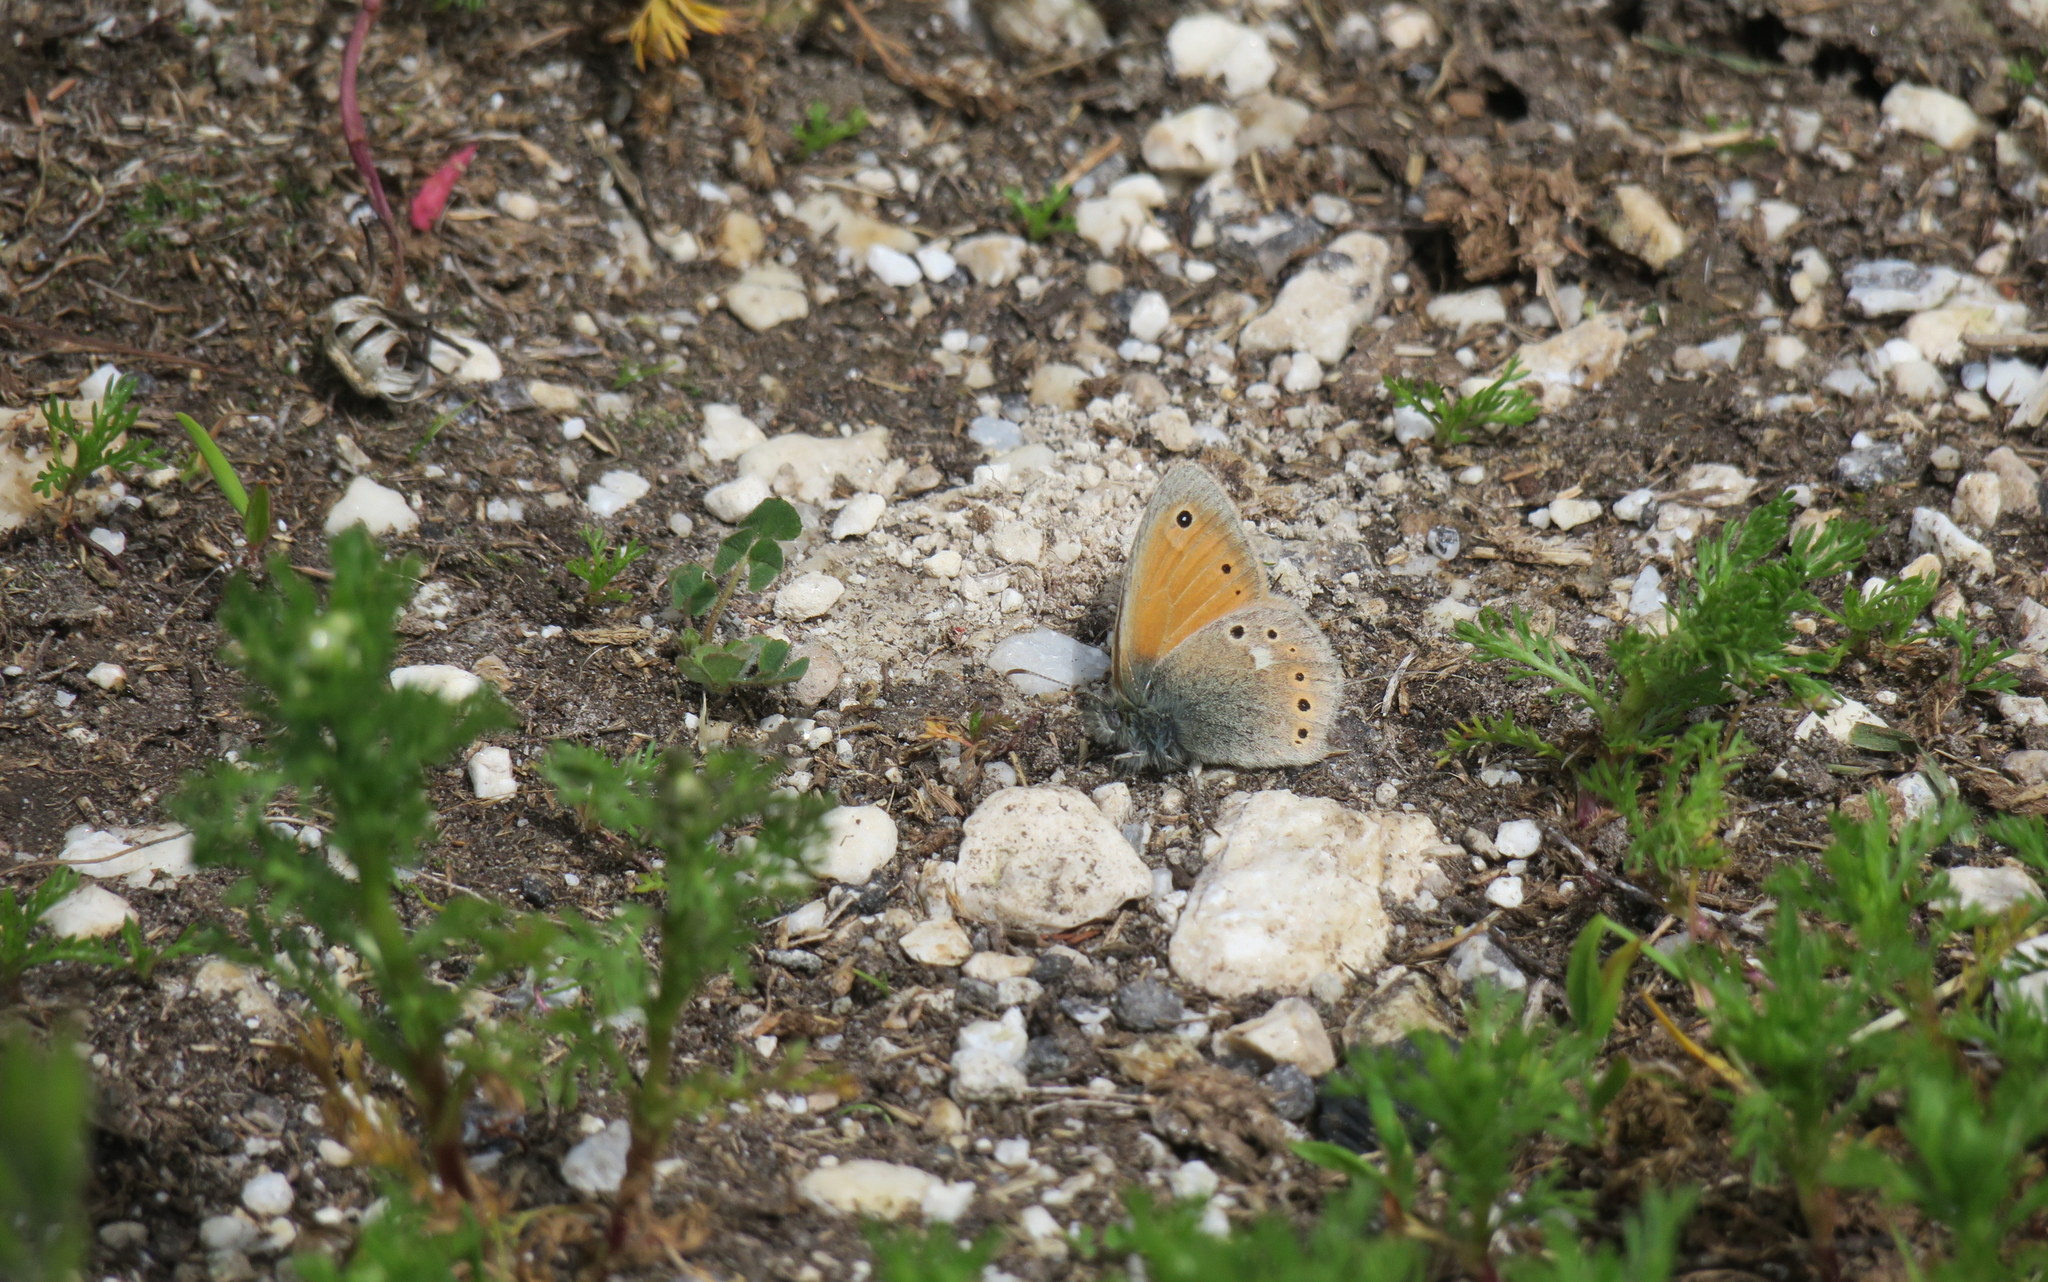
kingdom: Animalia
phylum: Arthropoda
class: Insecta
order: Lepidoptera
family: Nymphalidae
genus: Coenonympha
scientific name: Coenonympha tullia
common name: Large heath
